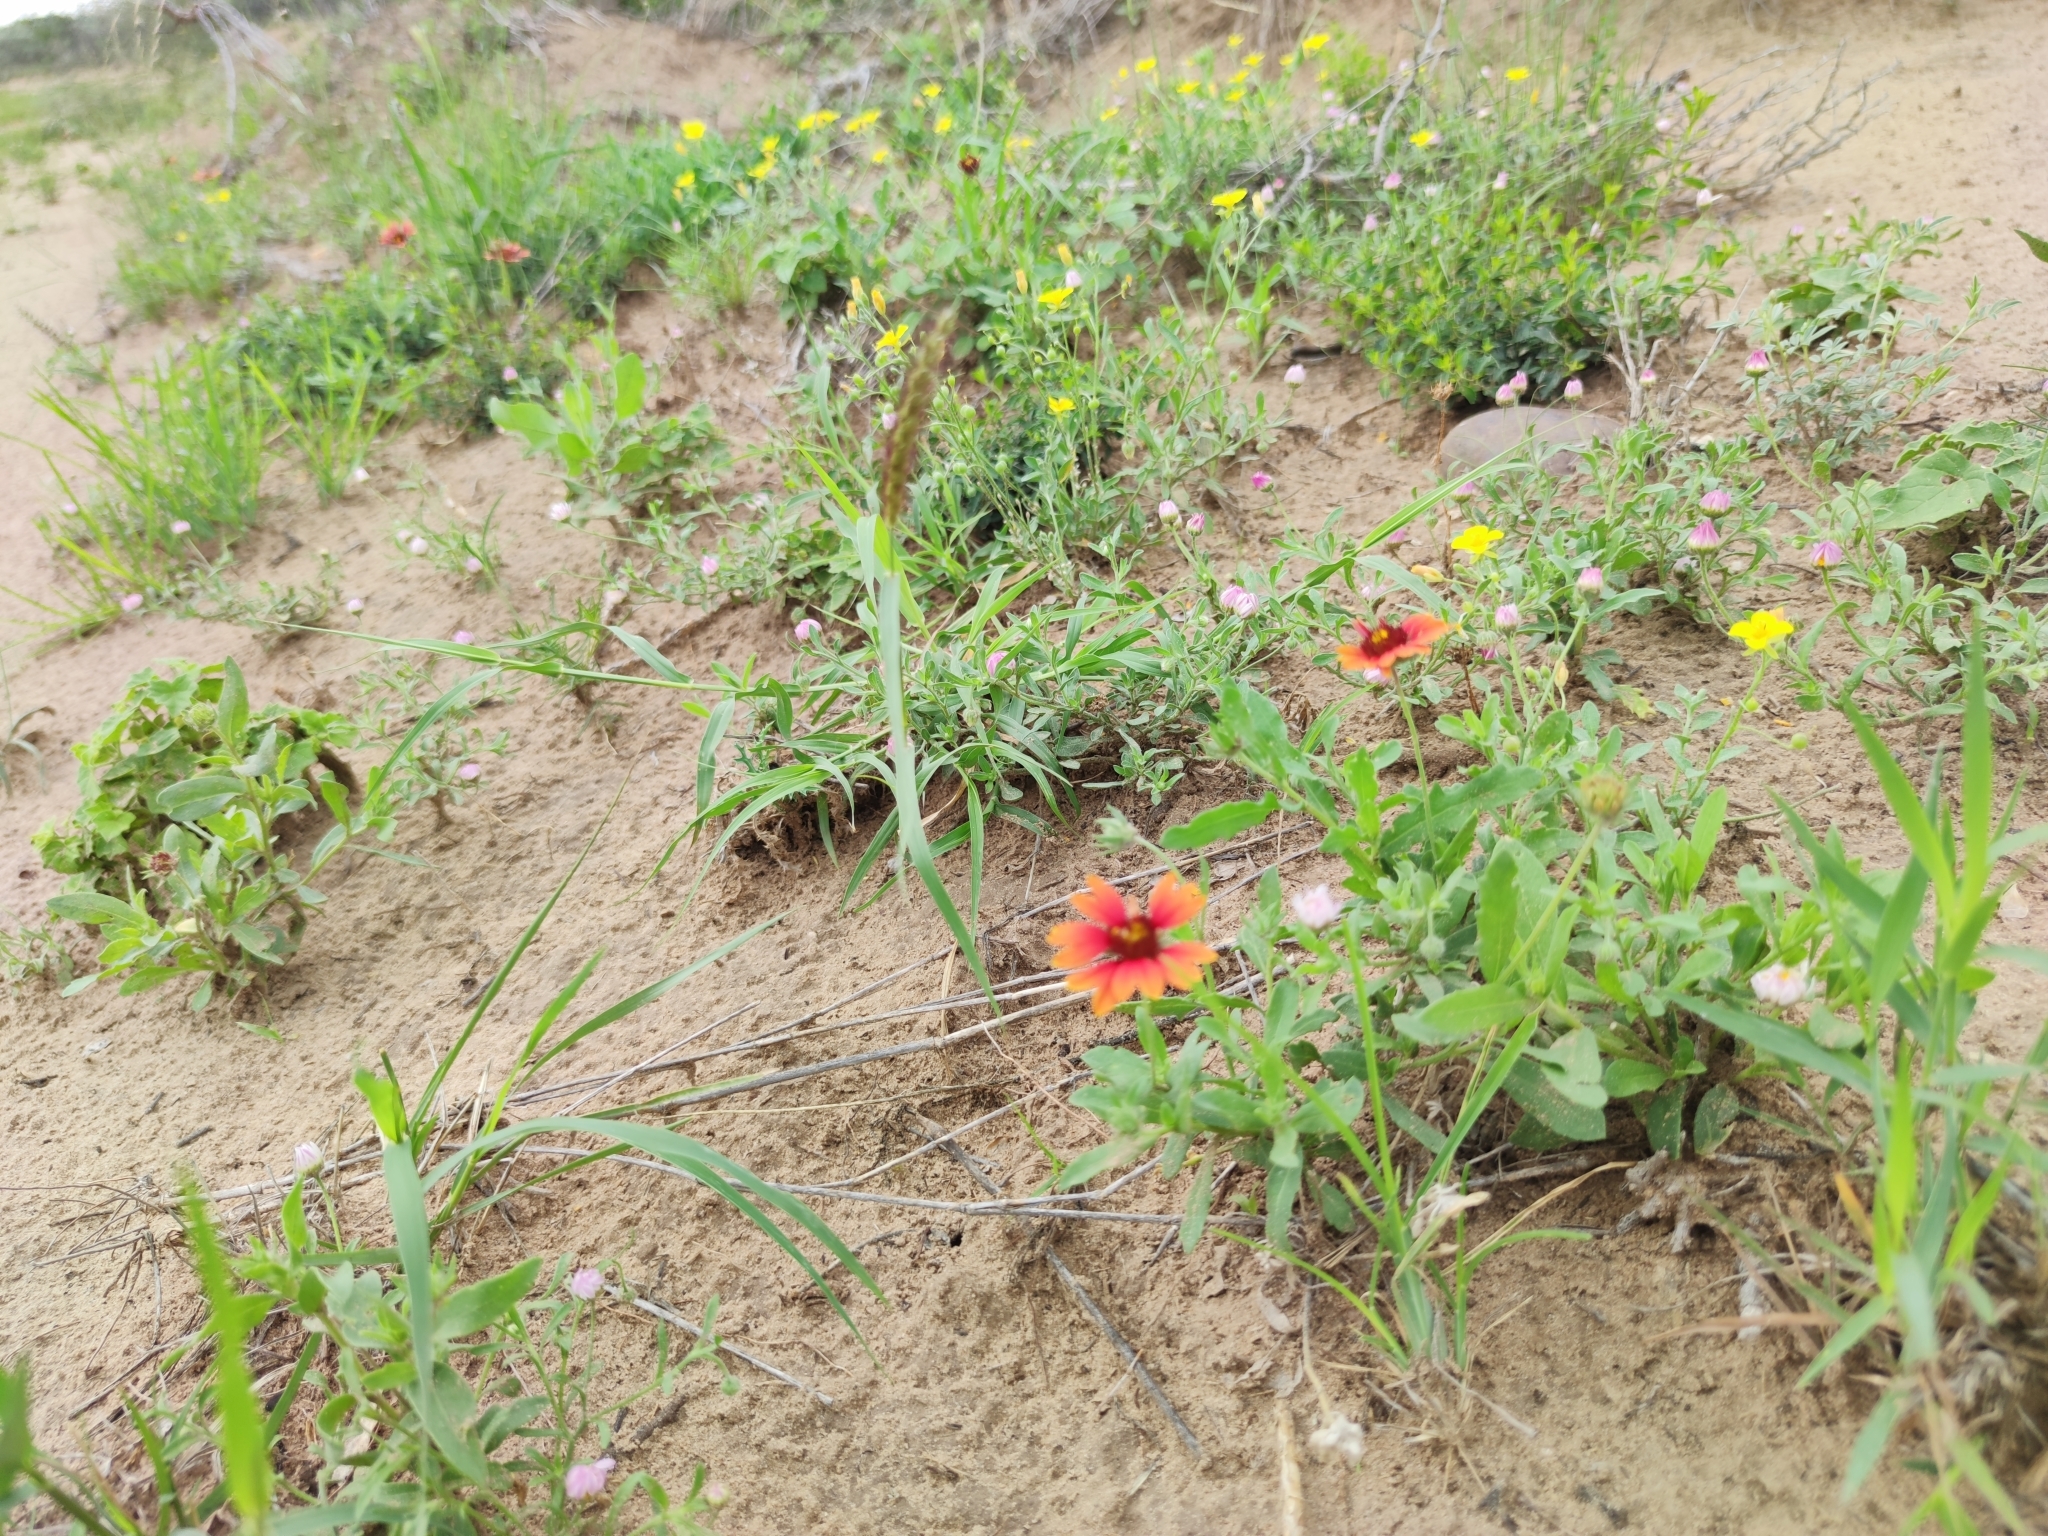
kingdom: Plantae
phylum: Tracheophyta
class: Magnoliopsida
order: Asterales
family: Asteraceae
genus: Gaillardia
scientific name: Gaillardia pulchella
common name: Firewheel
